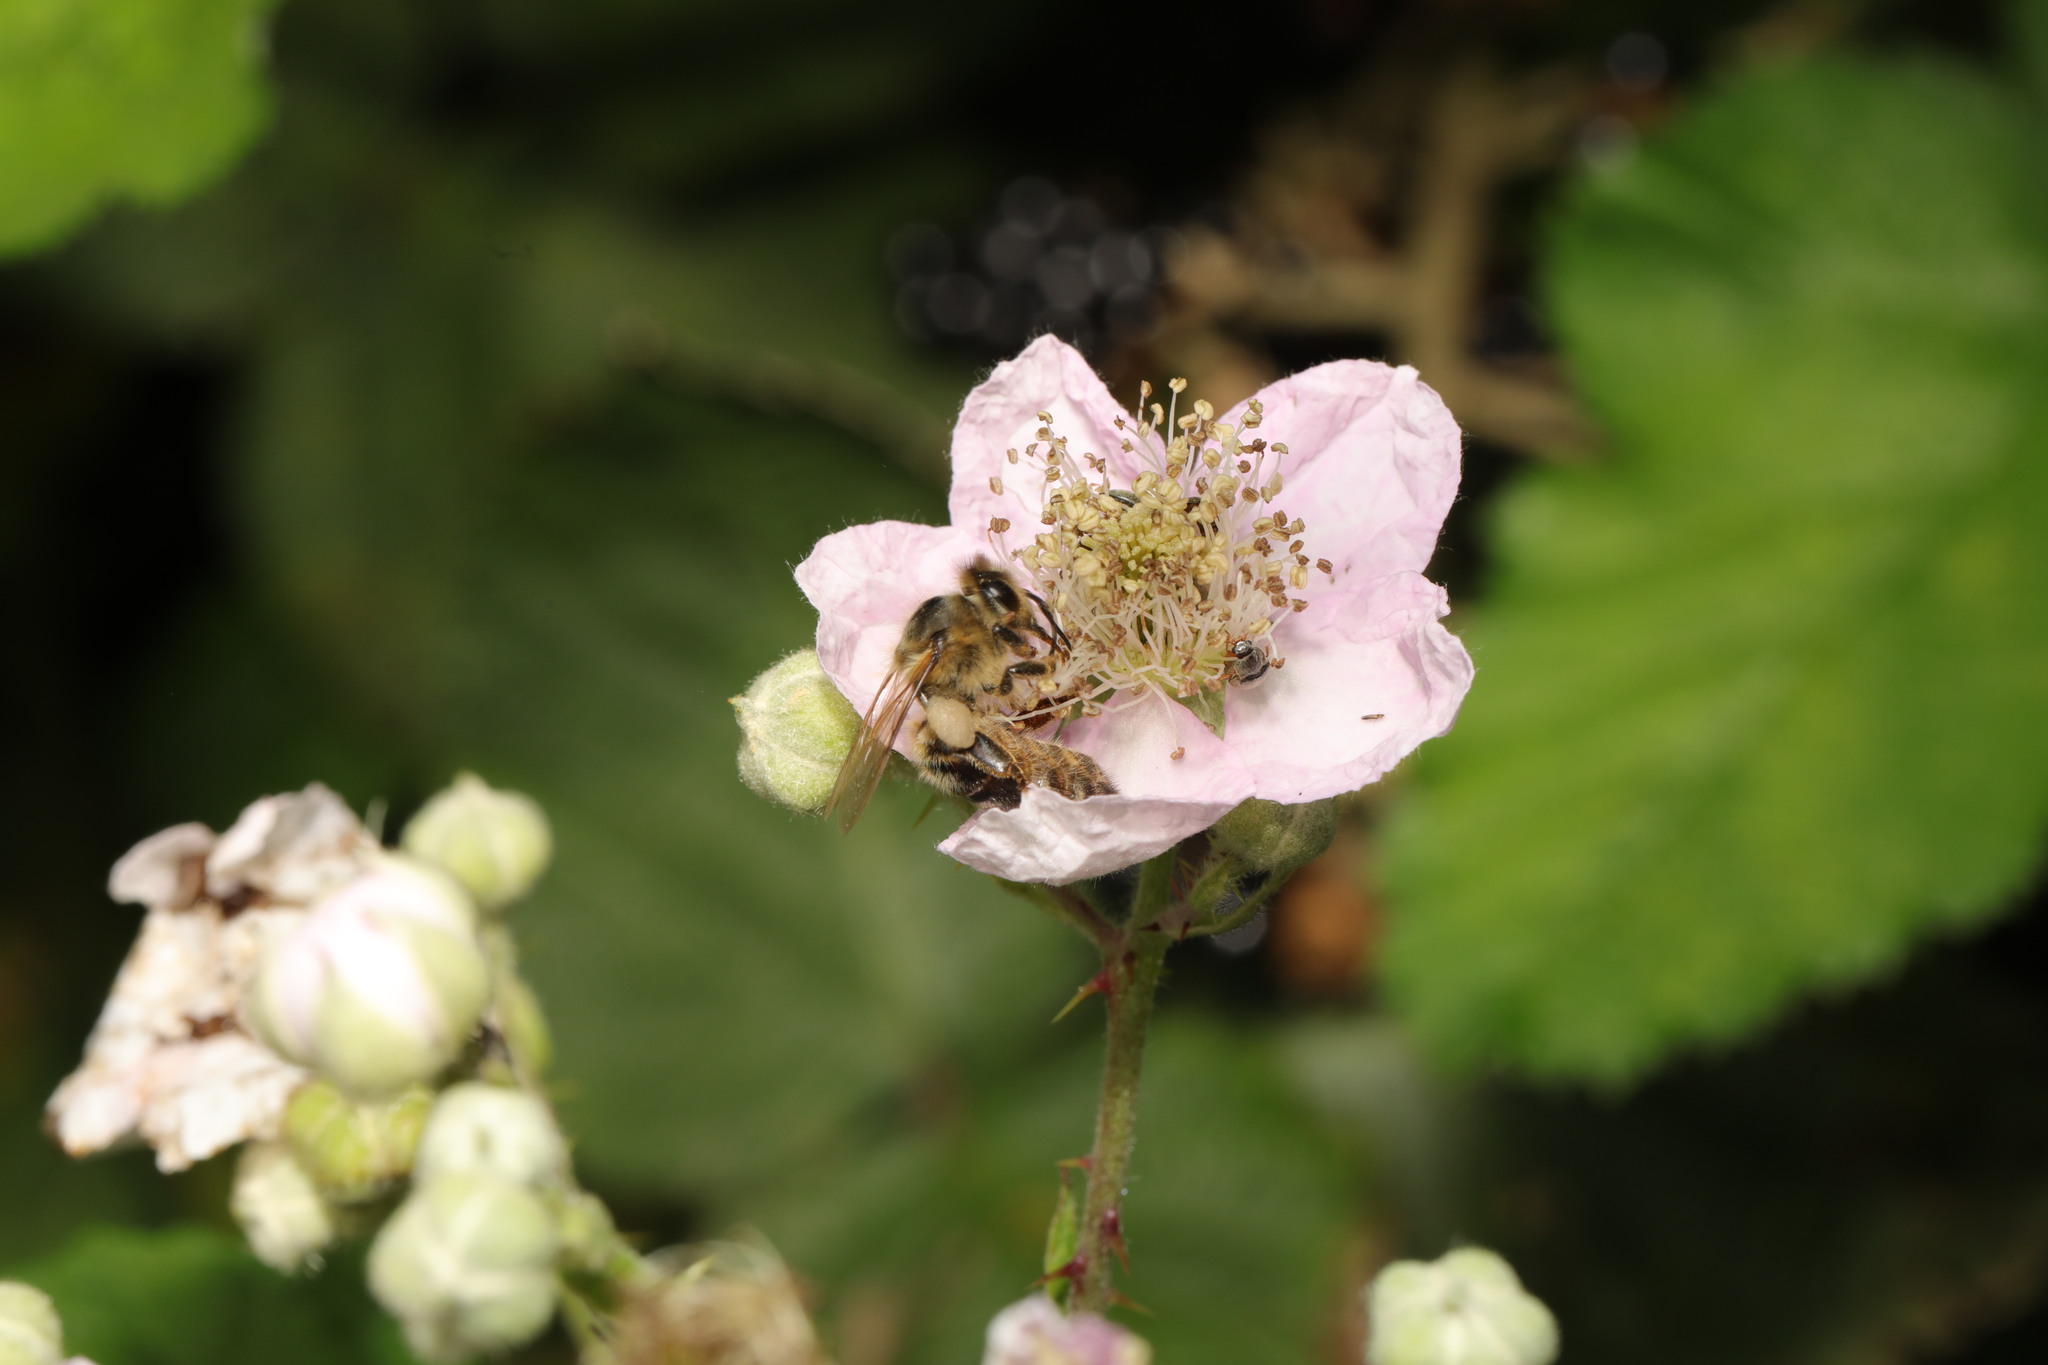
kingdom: Animalia
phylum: Arthropoda
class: Insecta
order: Hymenoptera
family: Apidae
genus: Apis
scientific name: Apis mellifera
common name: Honey bee
